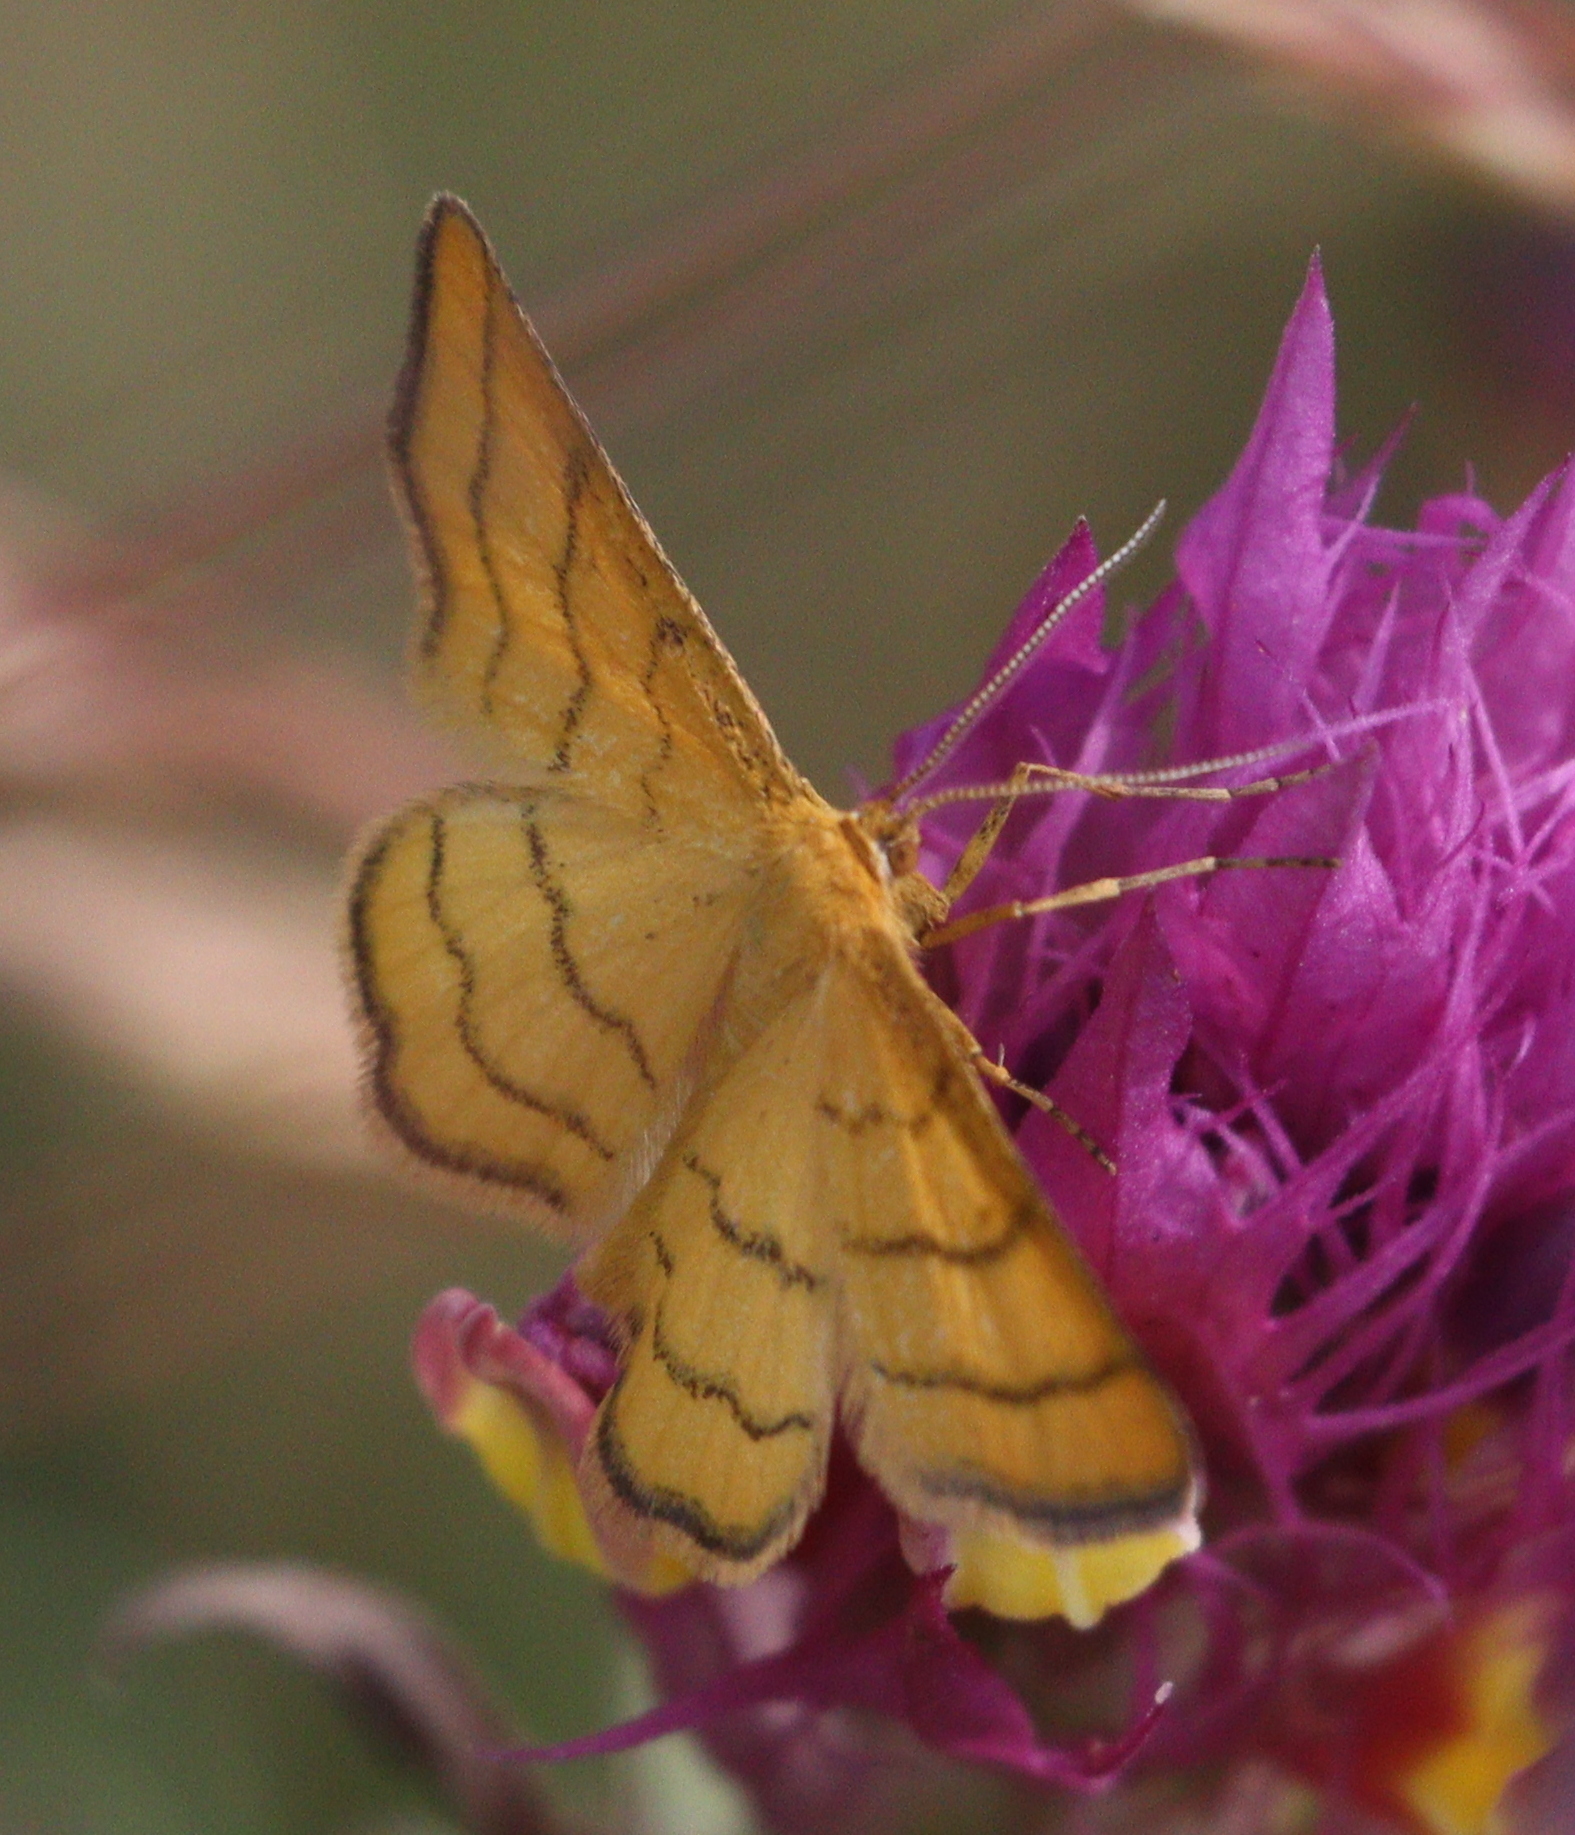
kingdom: Animalia
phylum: Arthropoda
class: Insecta
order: Lepidoptera
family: Geometridae
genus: Idaea
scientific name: Idaea aureolaria
